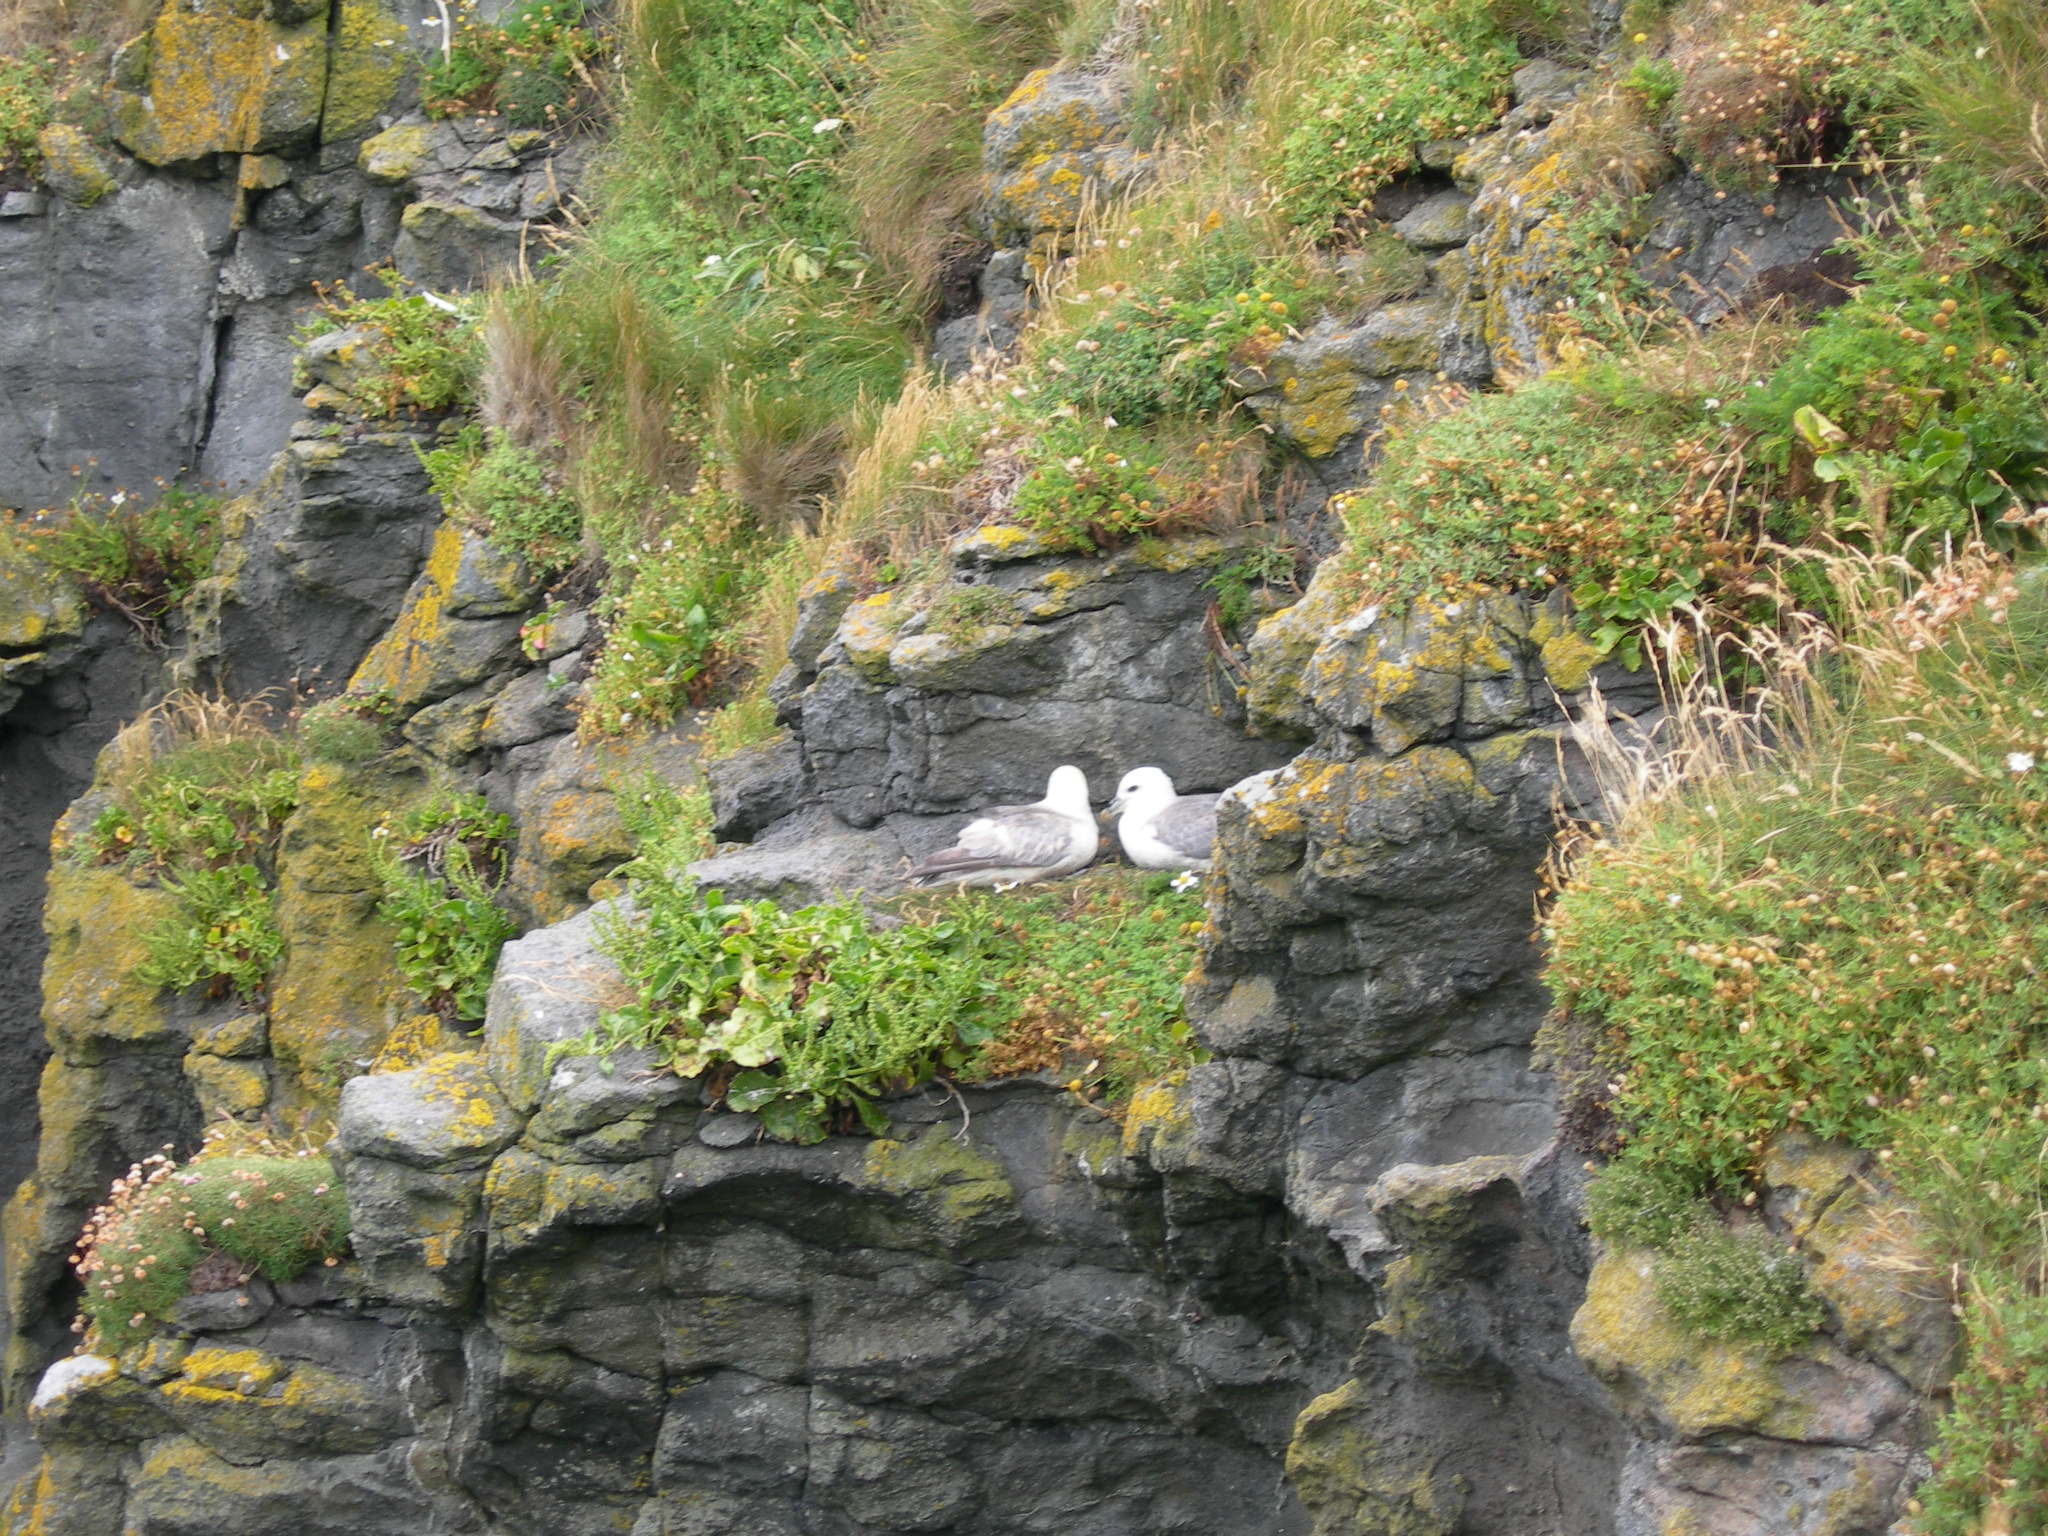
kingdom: Animalia
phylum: Chordata
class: Aves
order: Procellariiformes
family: Procellariidae
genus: Fulmarus
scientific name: Fulmarus glacialis
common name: Northern fulmar
